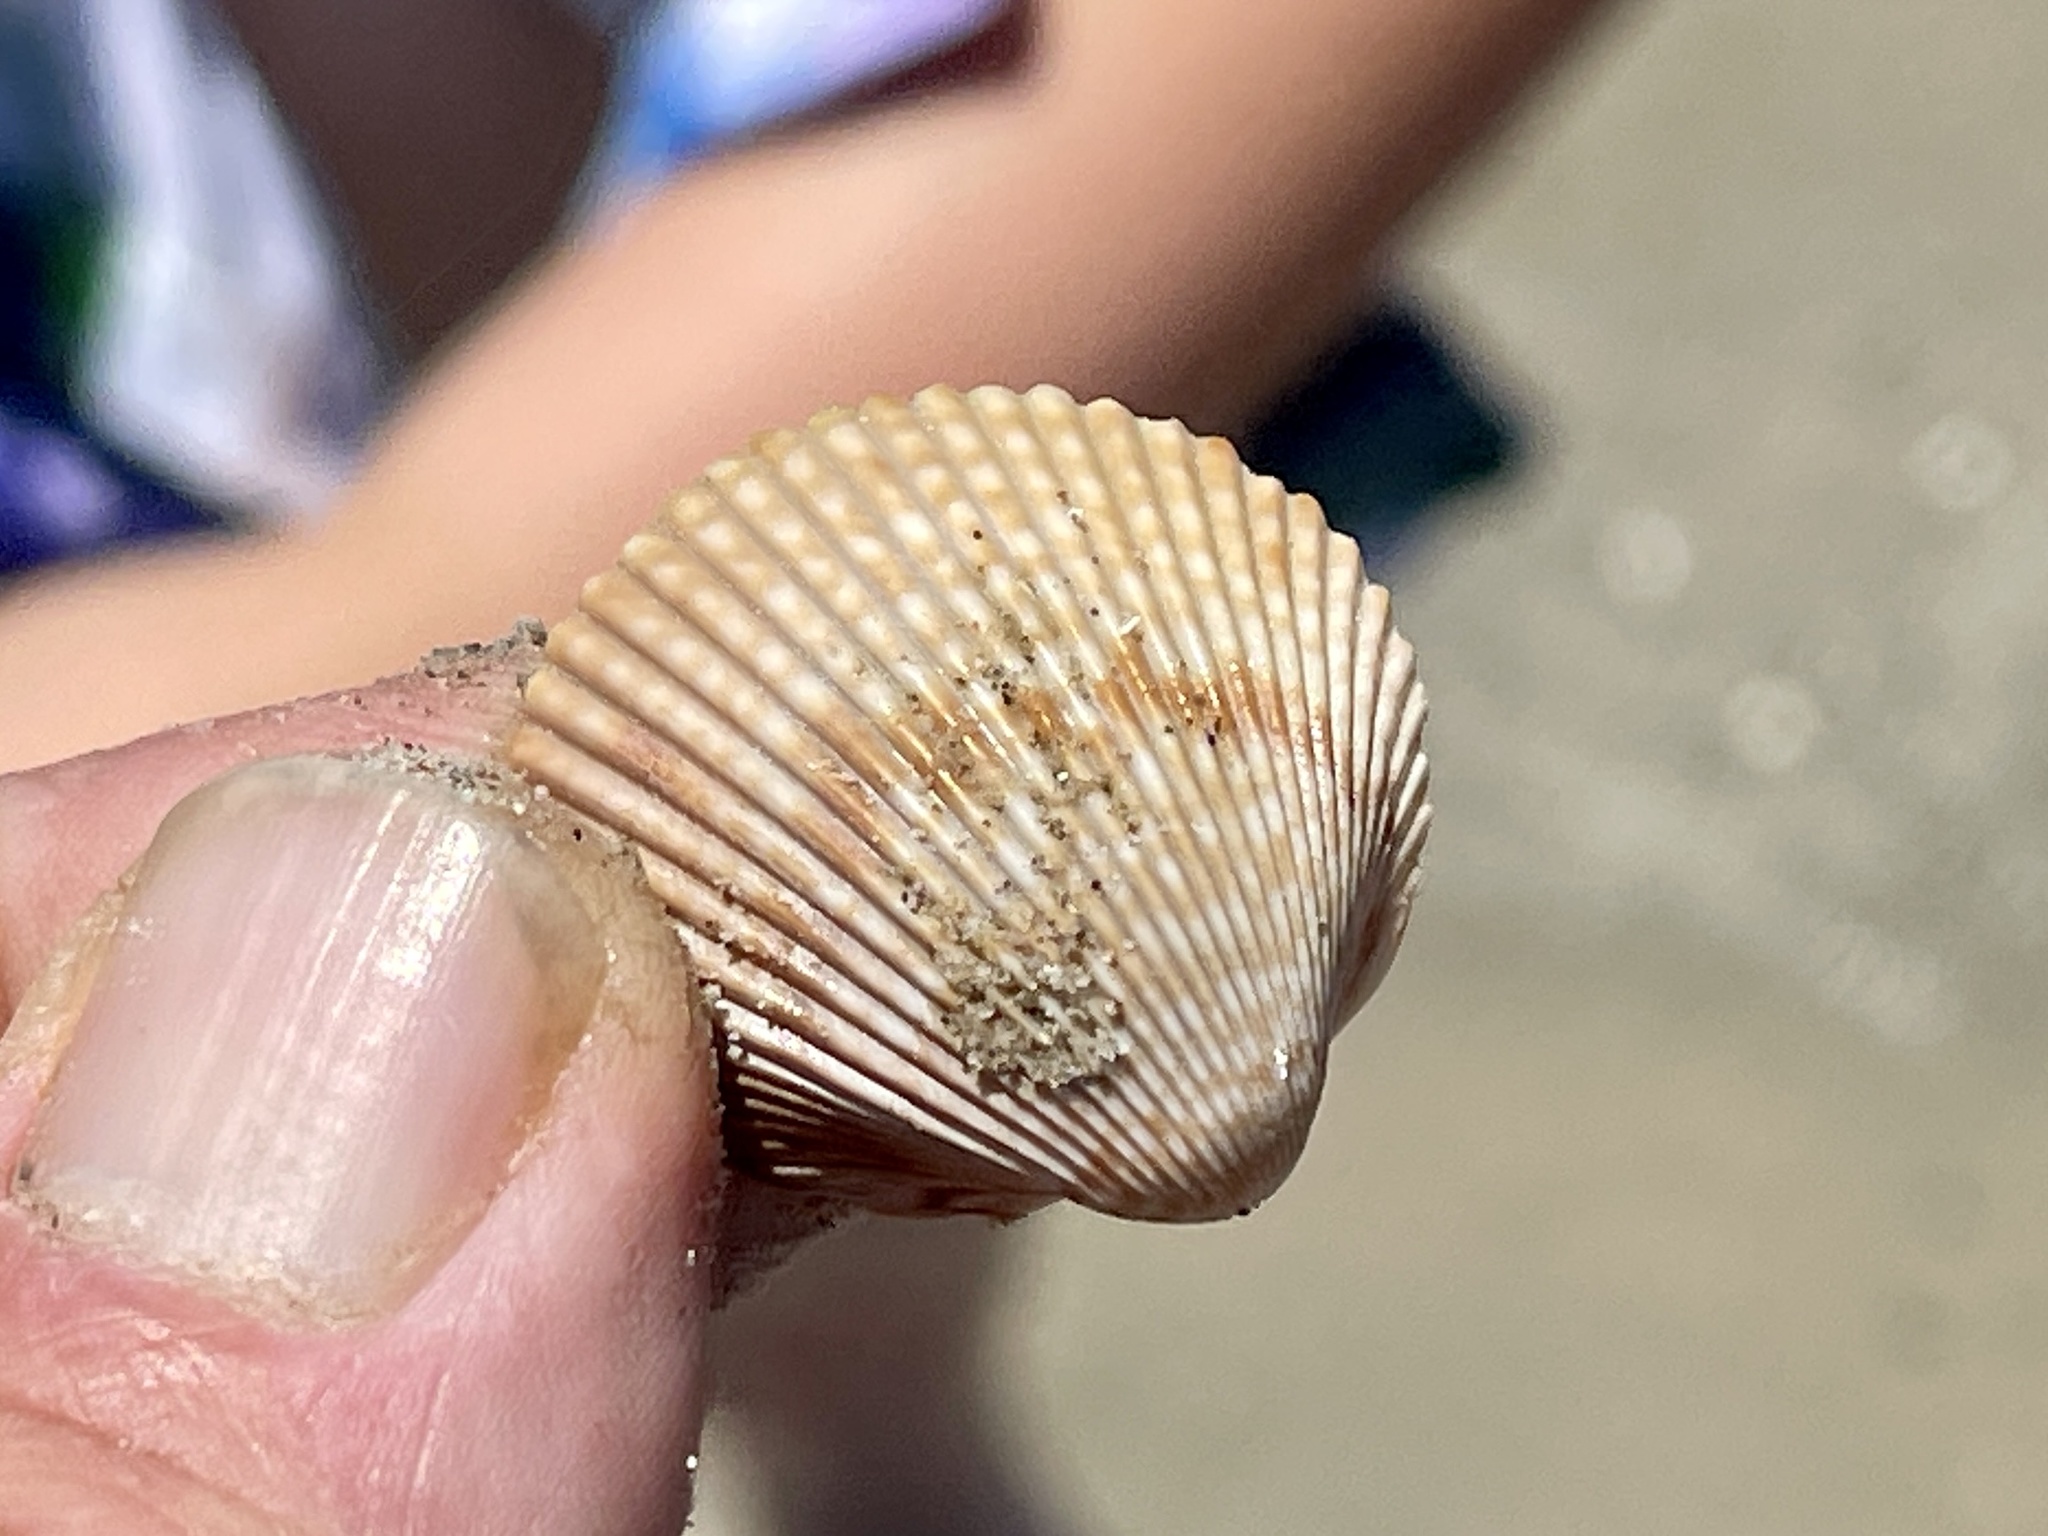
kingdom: Animalia
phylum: Mollusca
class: Bivalvia
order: Cardiida
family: Cardiidae
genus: Dinocardium
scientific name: Dinocardium robustum
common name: Atlantic giant cockle
